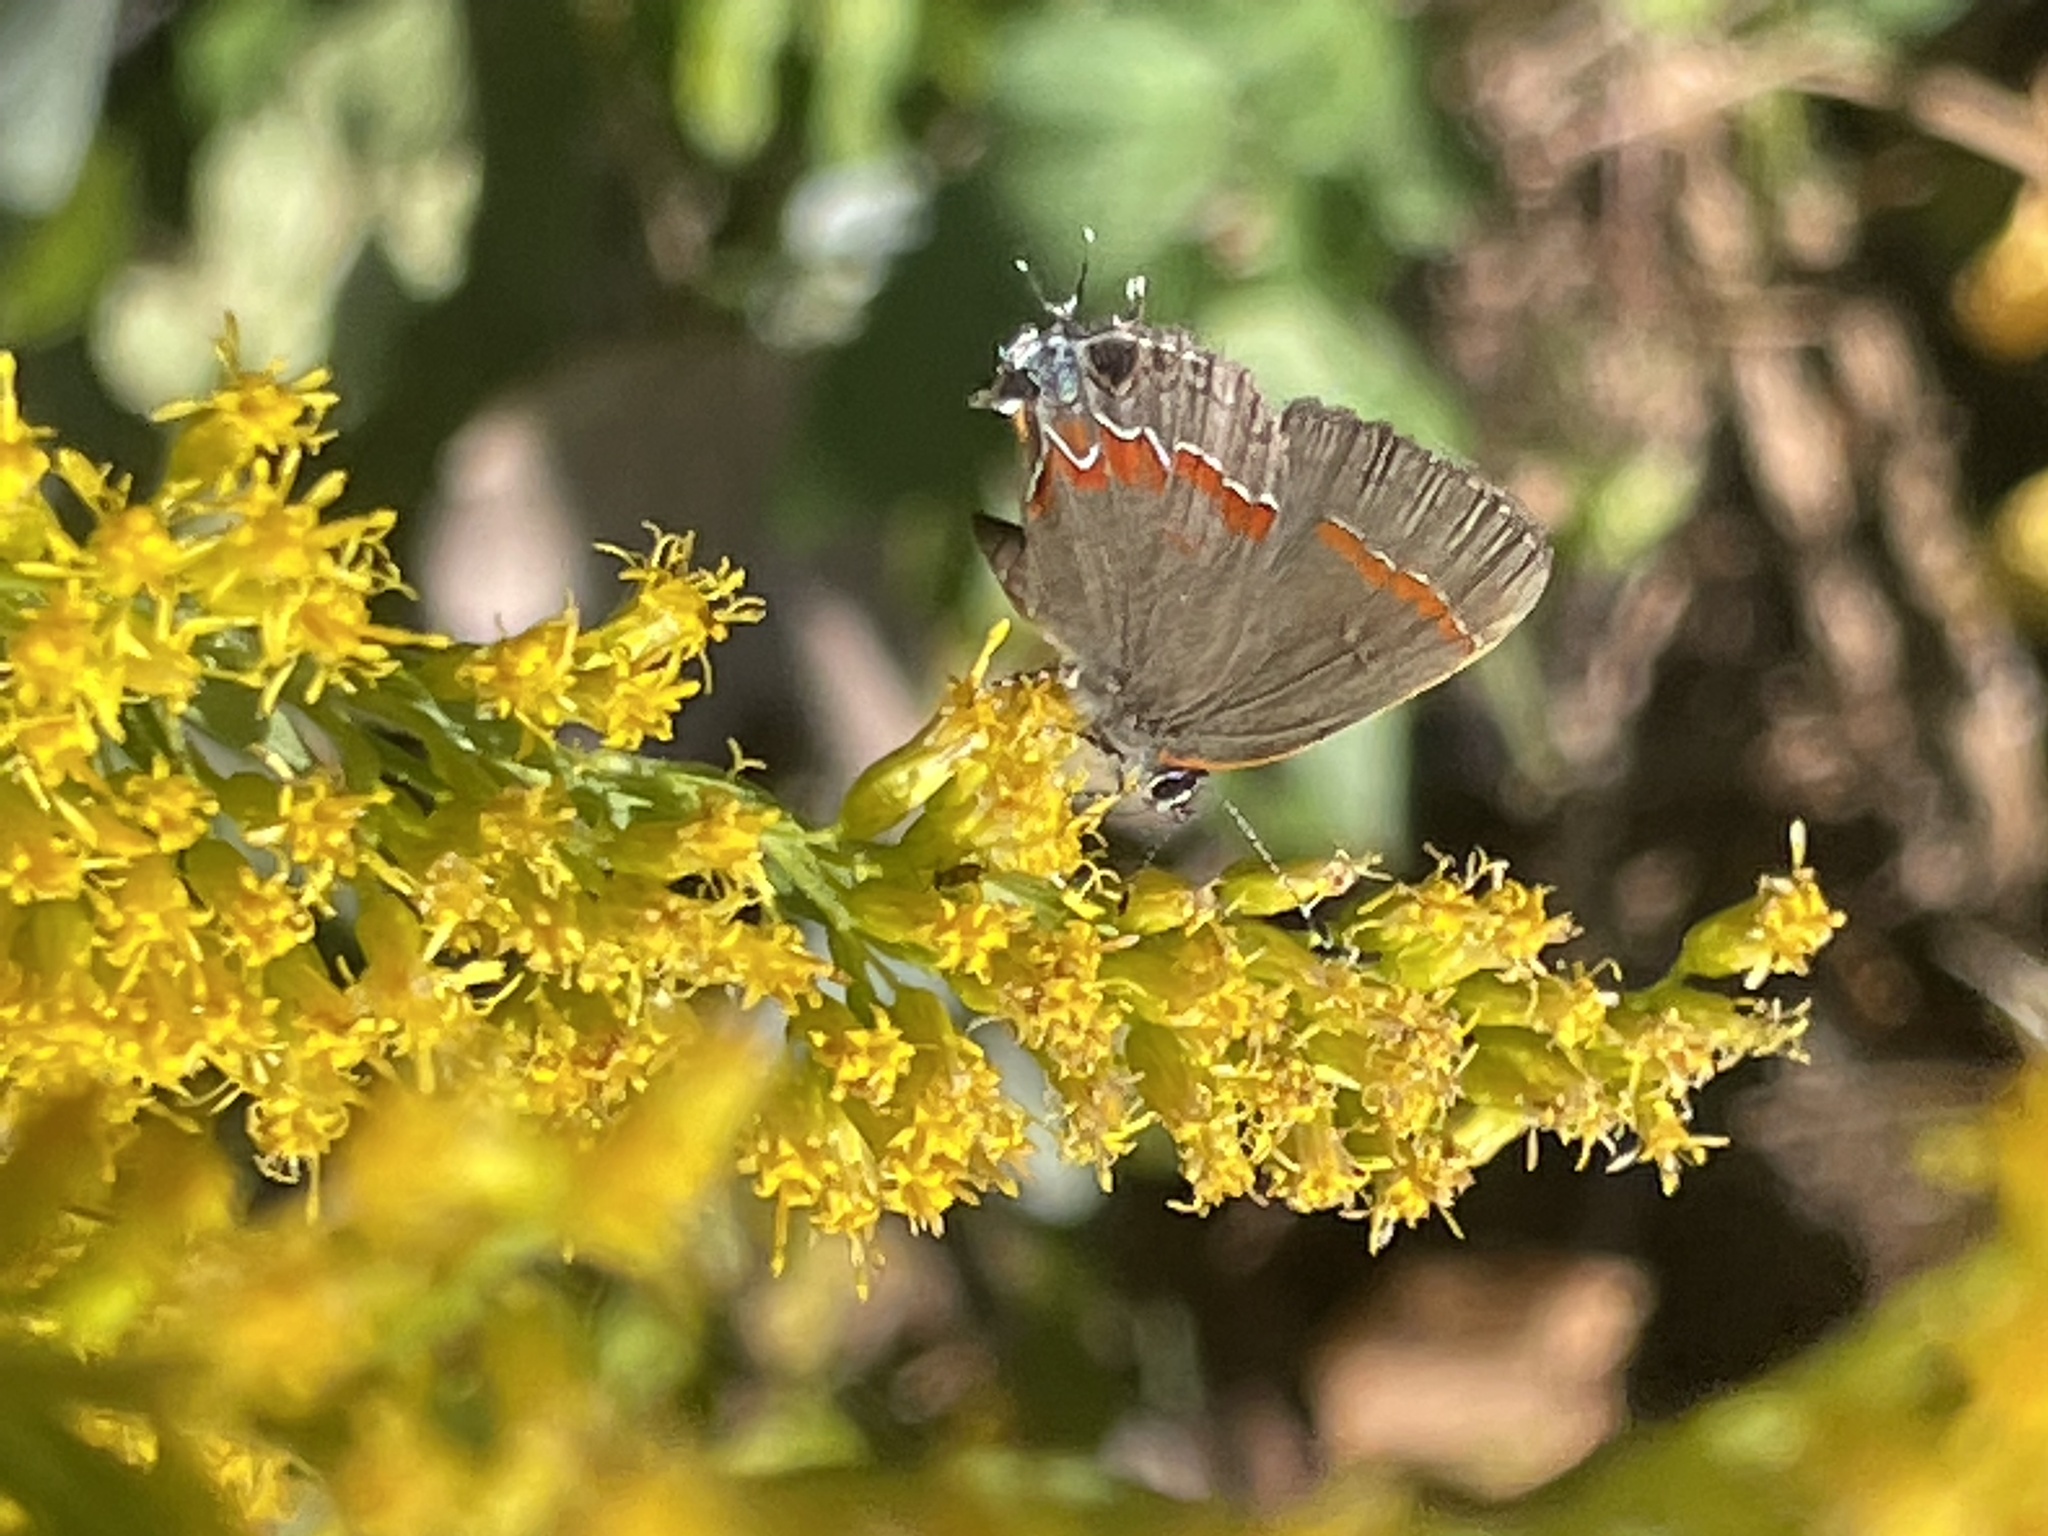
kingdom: Animalia
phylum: Arthropoda
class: Insecta
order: Lepidoptera
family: Lycaenidae
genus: Calycopis
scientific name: Calycopis cecrops
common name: Red-banded hairstreak
